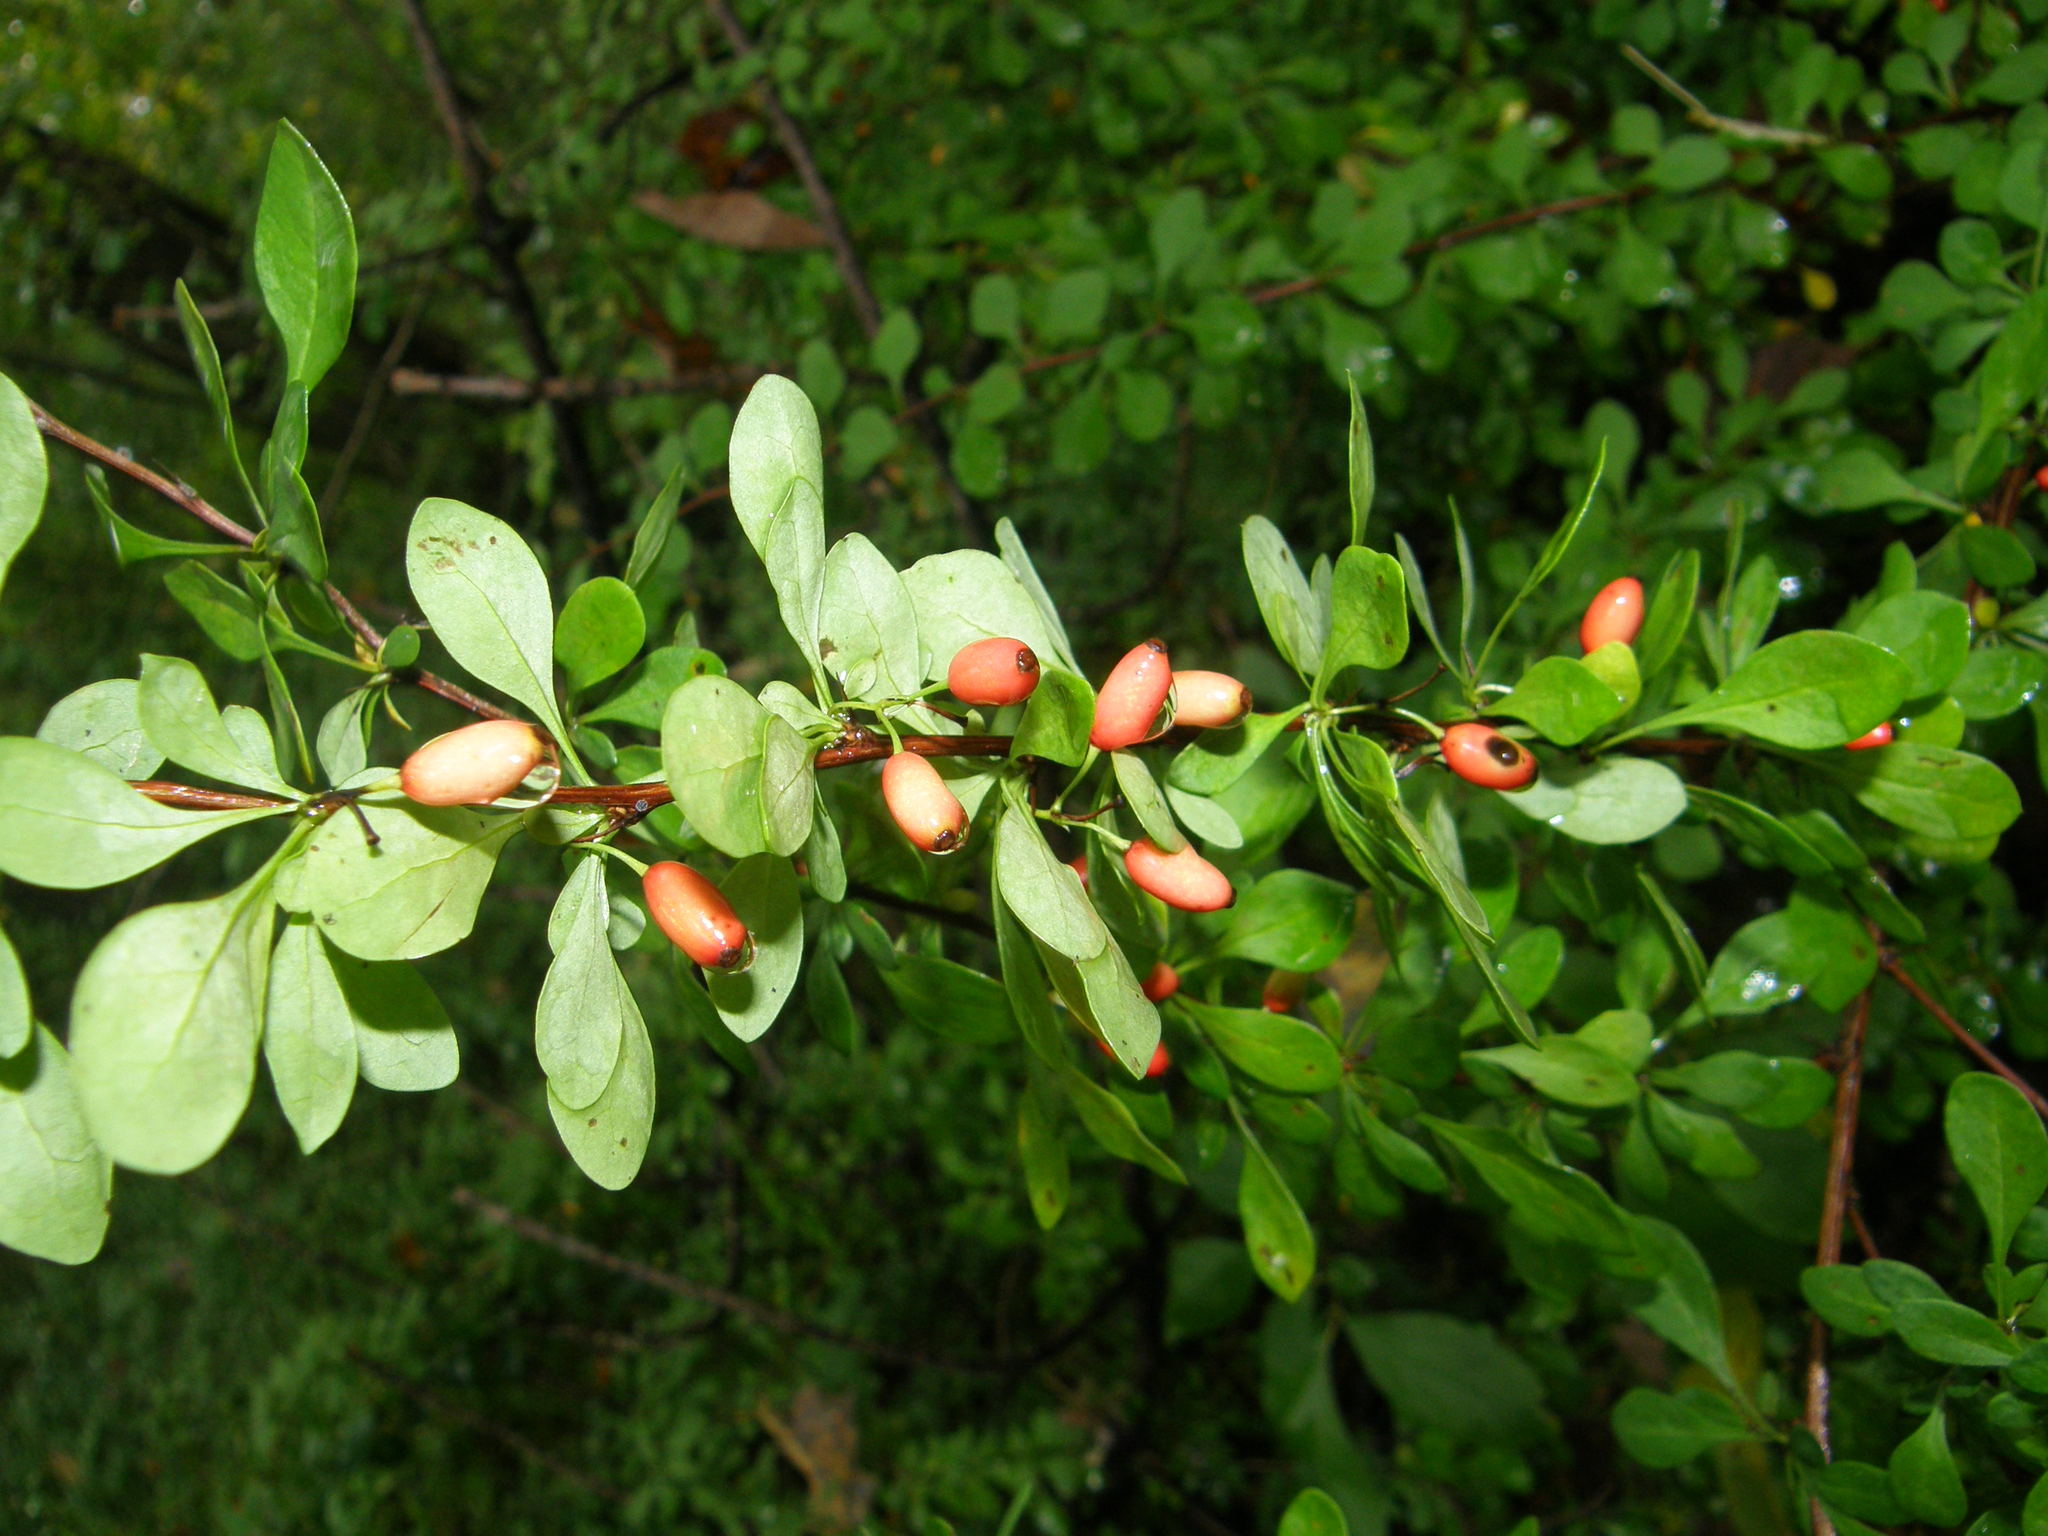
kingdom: Plantae
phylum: Tracheophyta
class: Magnoliopsida
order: Ranunculales
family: Berberidaceae
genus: Berberis
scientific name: Berberis thunbergii
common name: Japanese barberry
